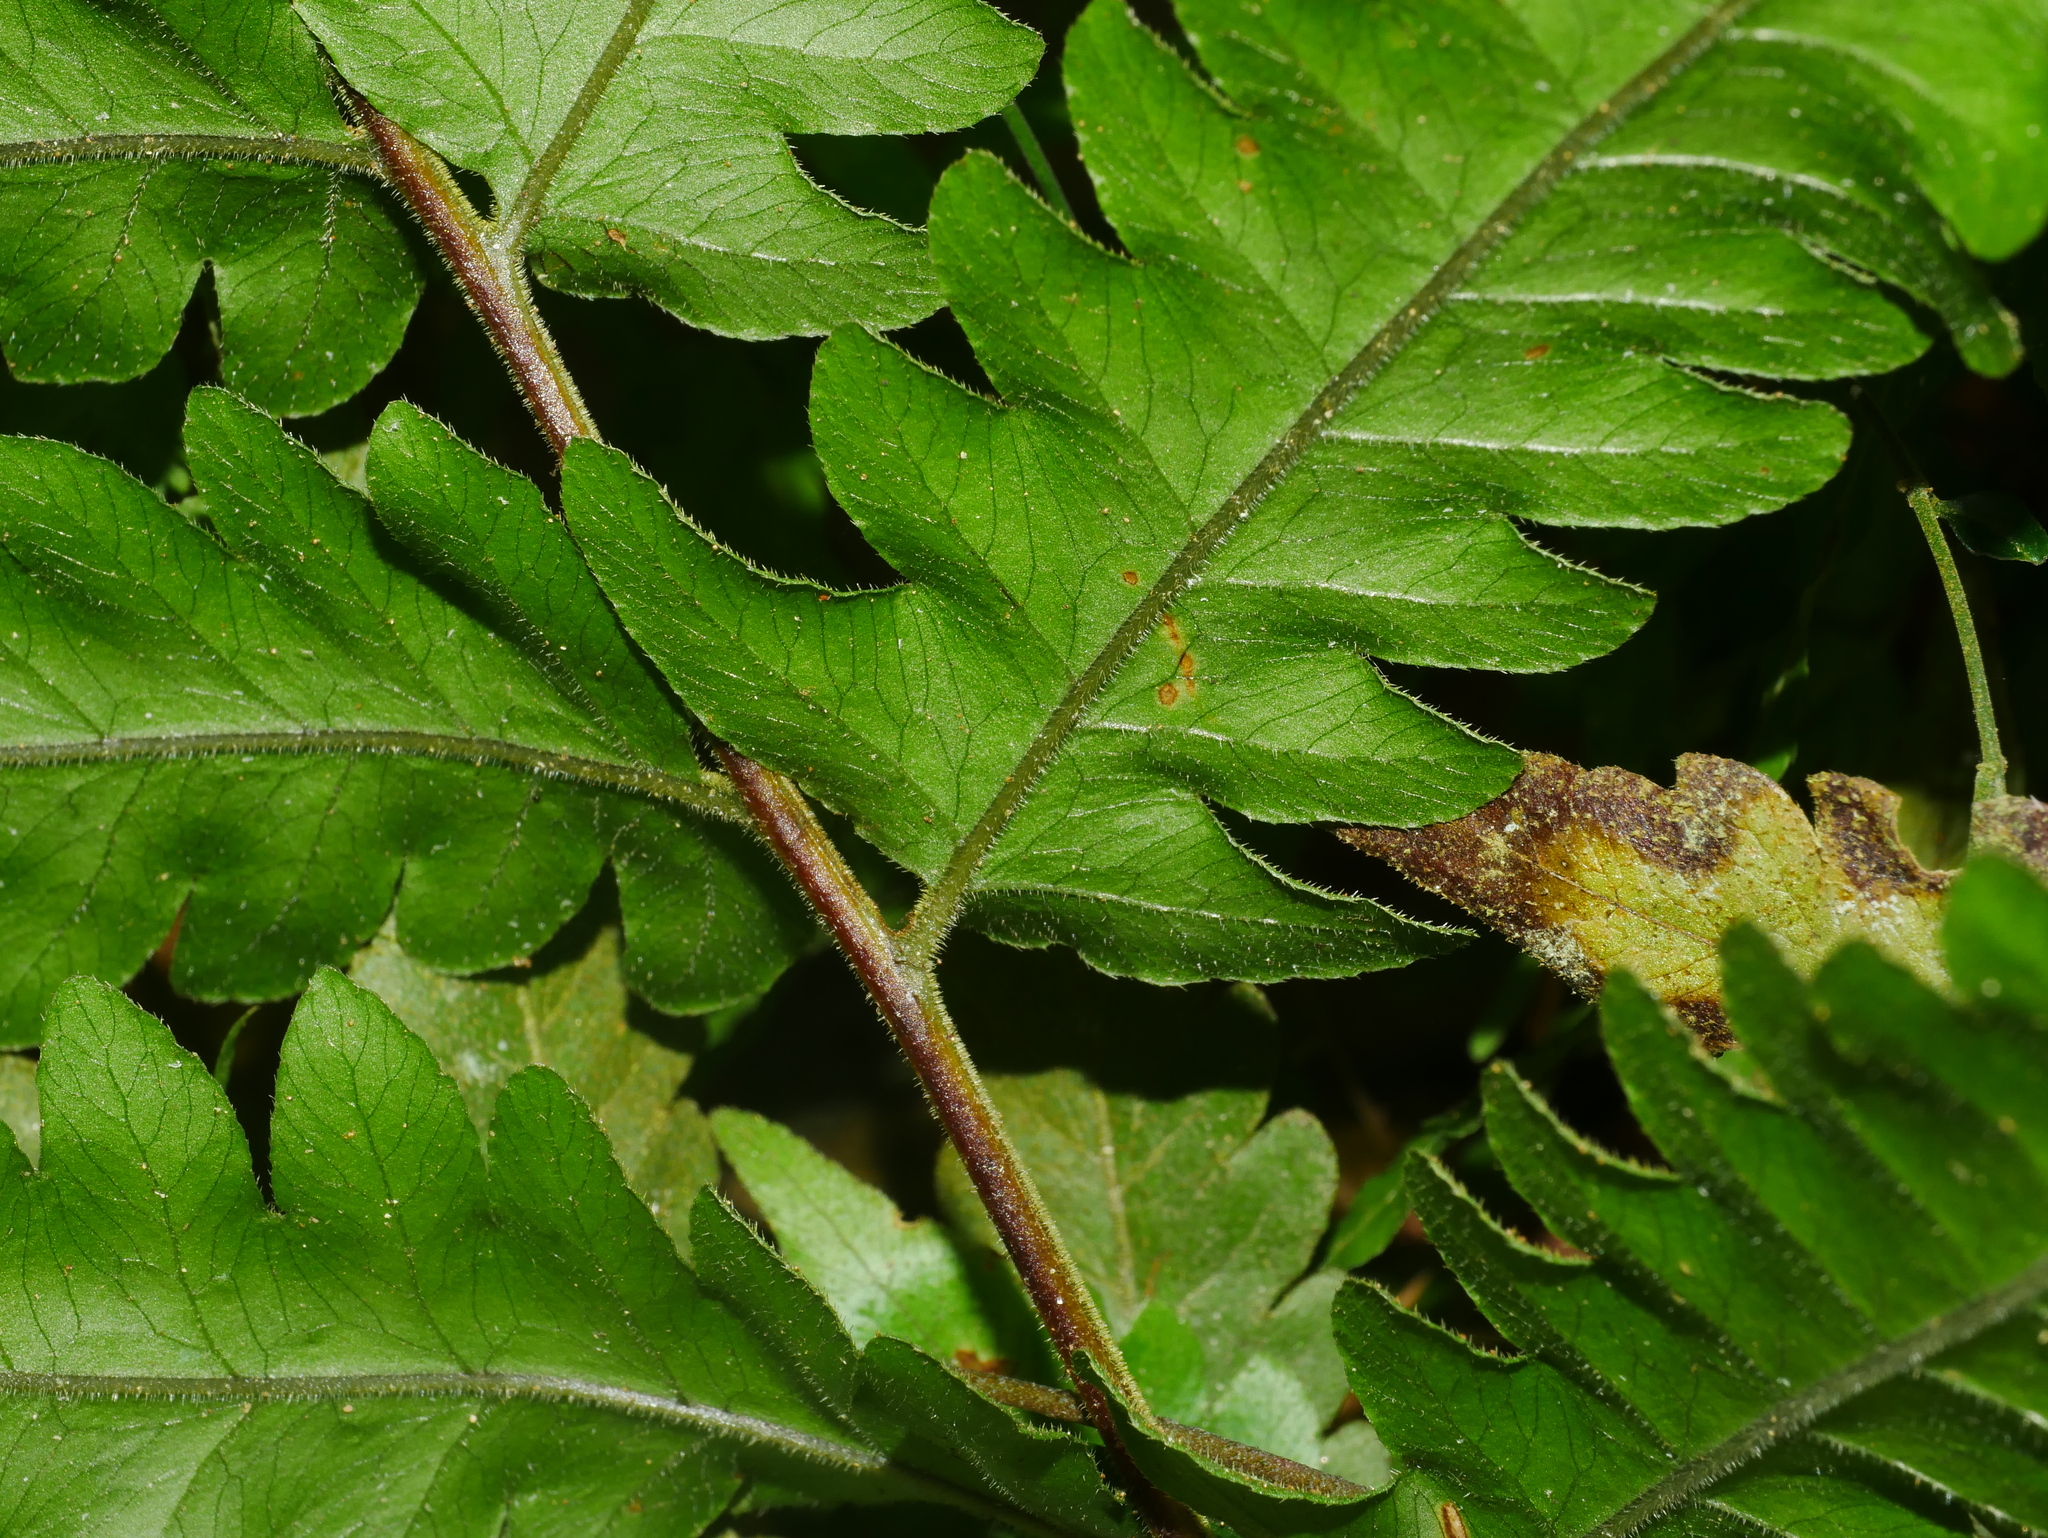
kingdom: Plantae
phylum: Tracheophyta
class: Polypodiopsida
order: Polypodiales
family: Tectariaceae
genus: Tectaria
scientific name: Tectaria subfuscipes
